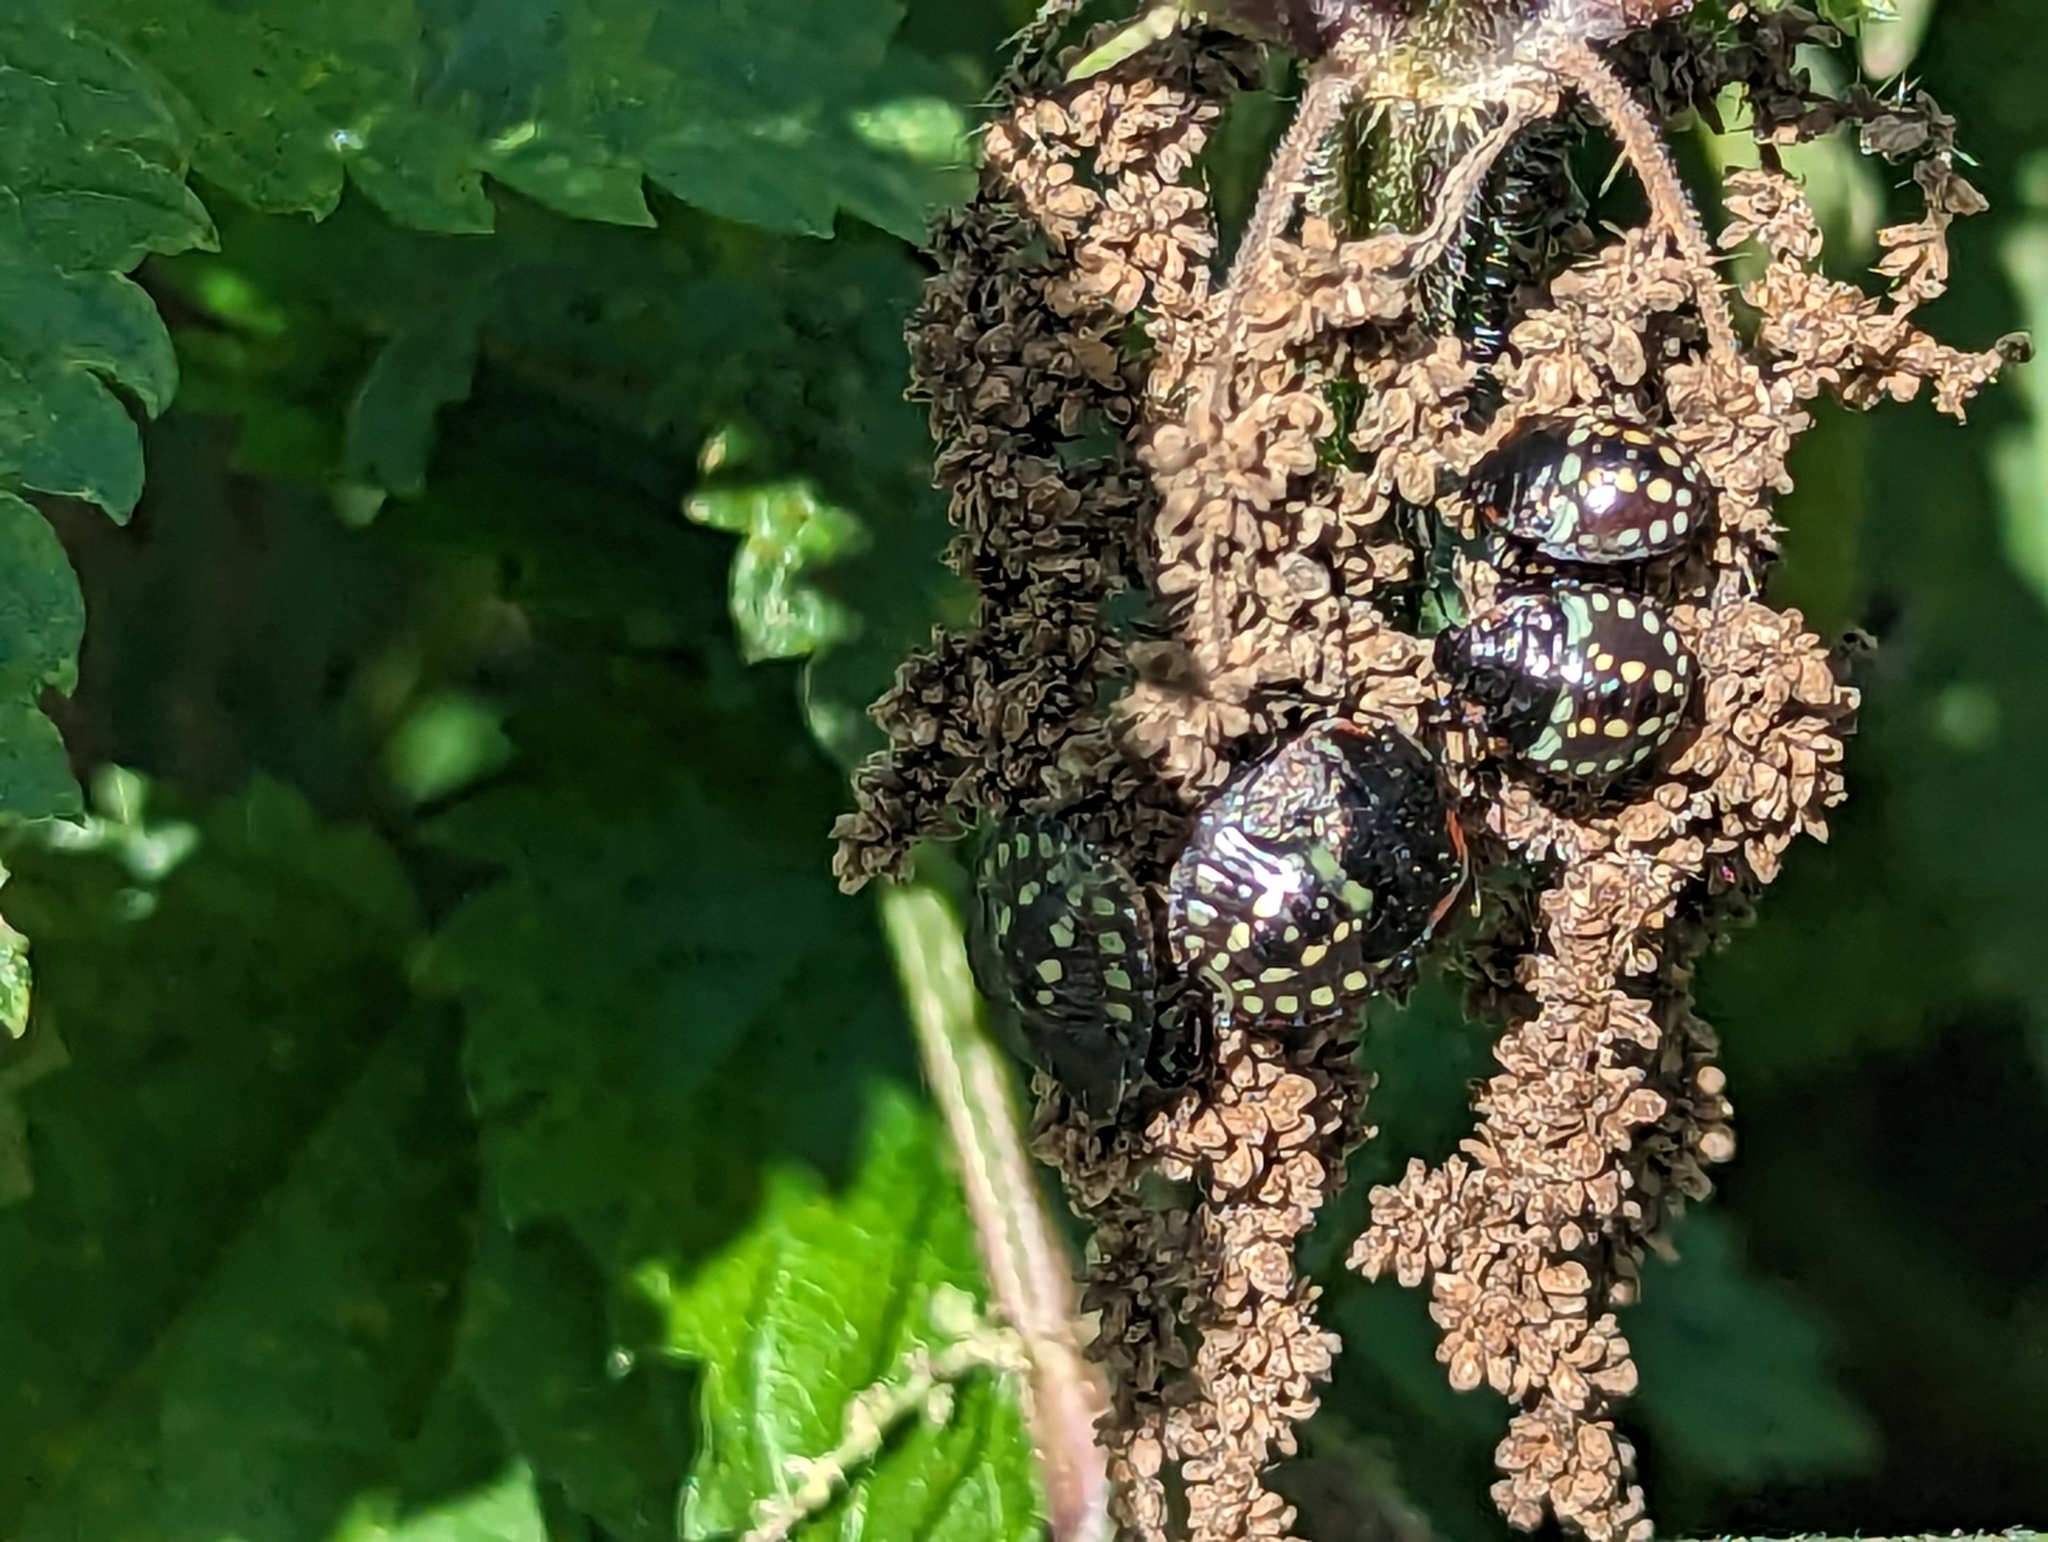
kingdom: Animalia
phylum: Arthropoda
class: Insecta
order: Hemiptera
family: Pentatomidae
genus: Nezara
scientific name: Nezara viridula
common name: Southern green stink bug
